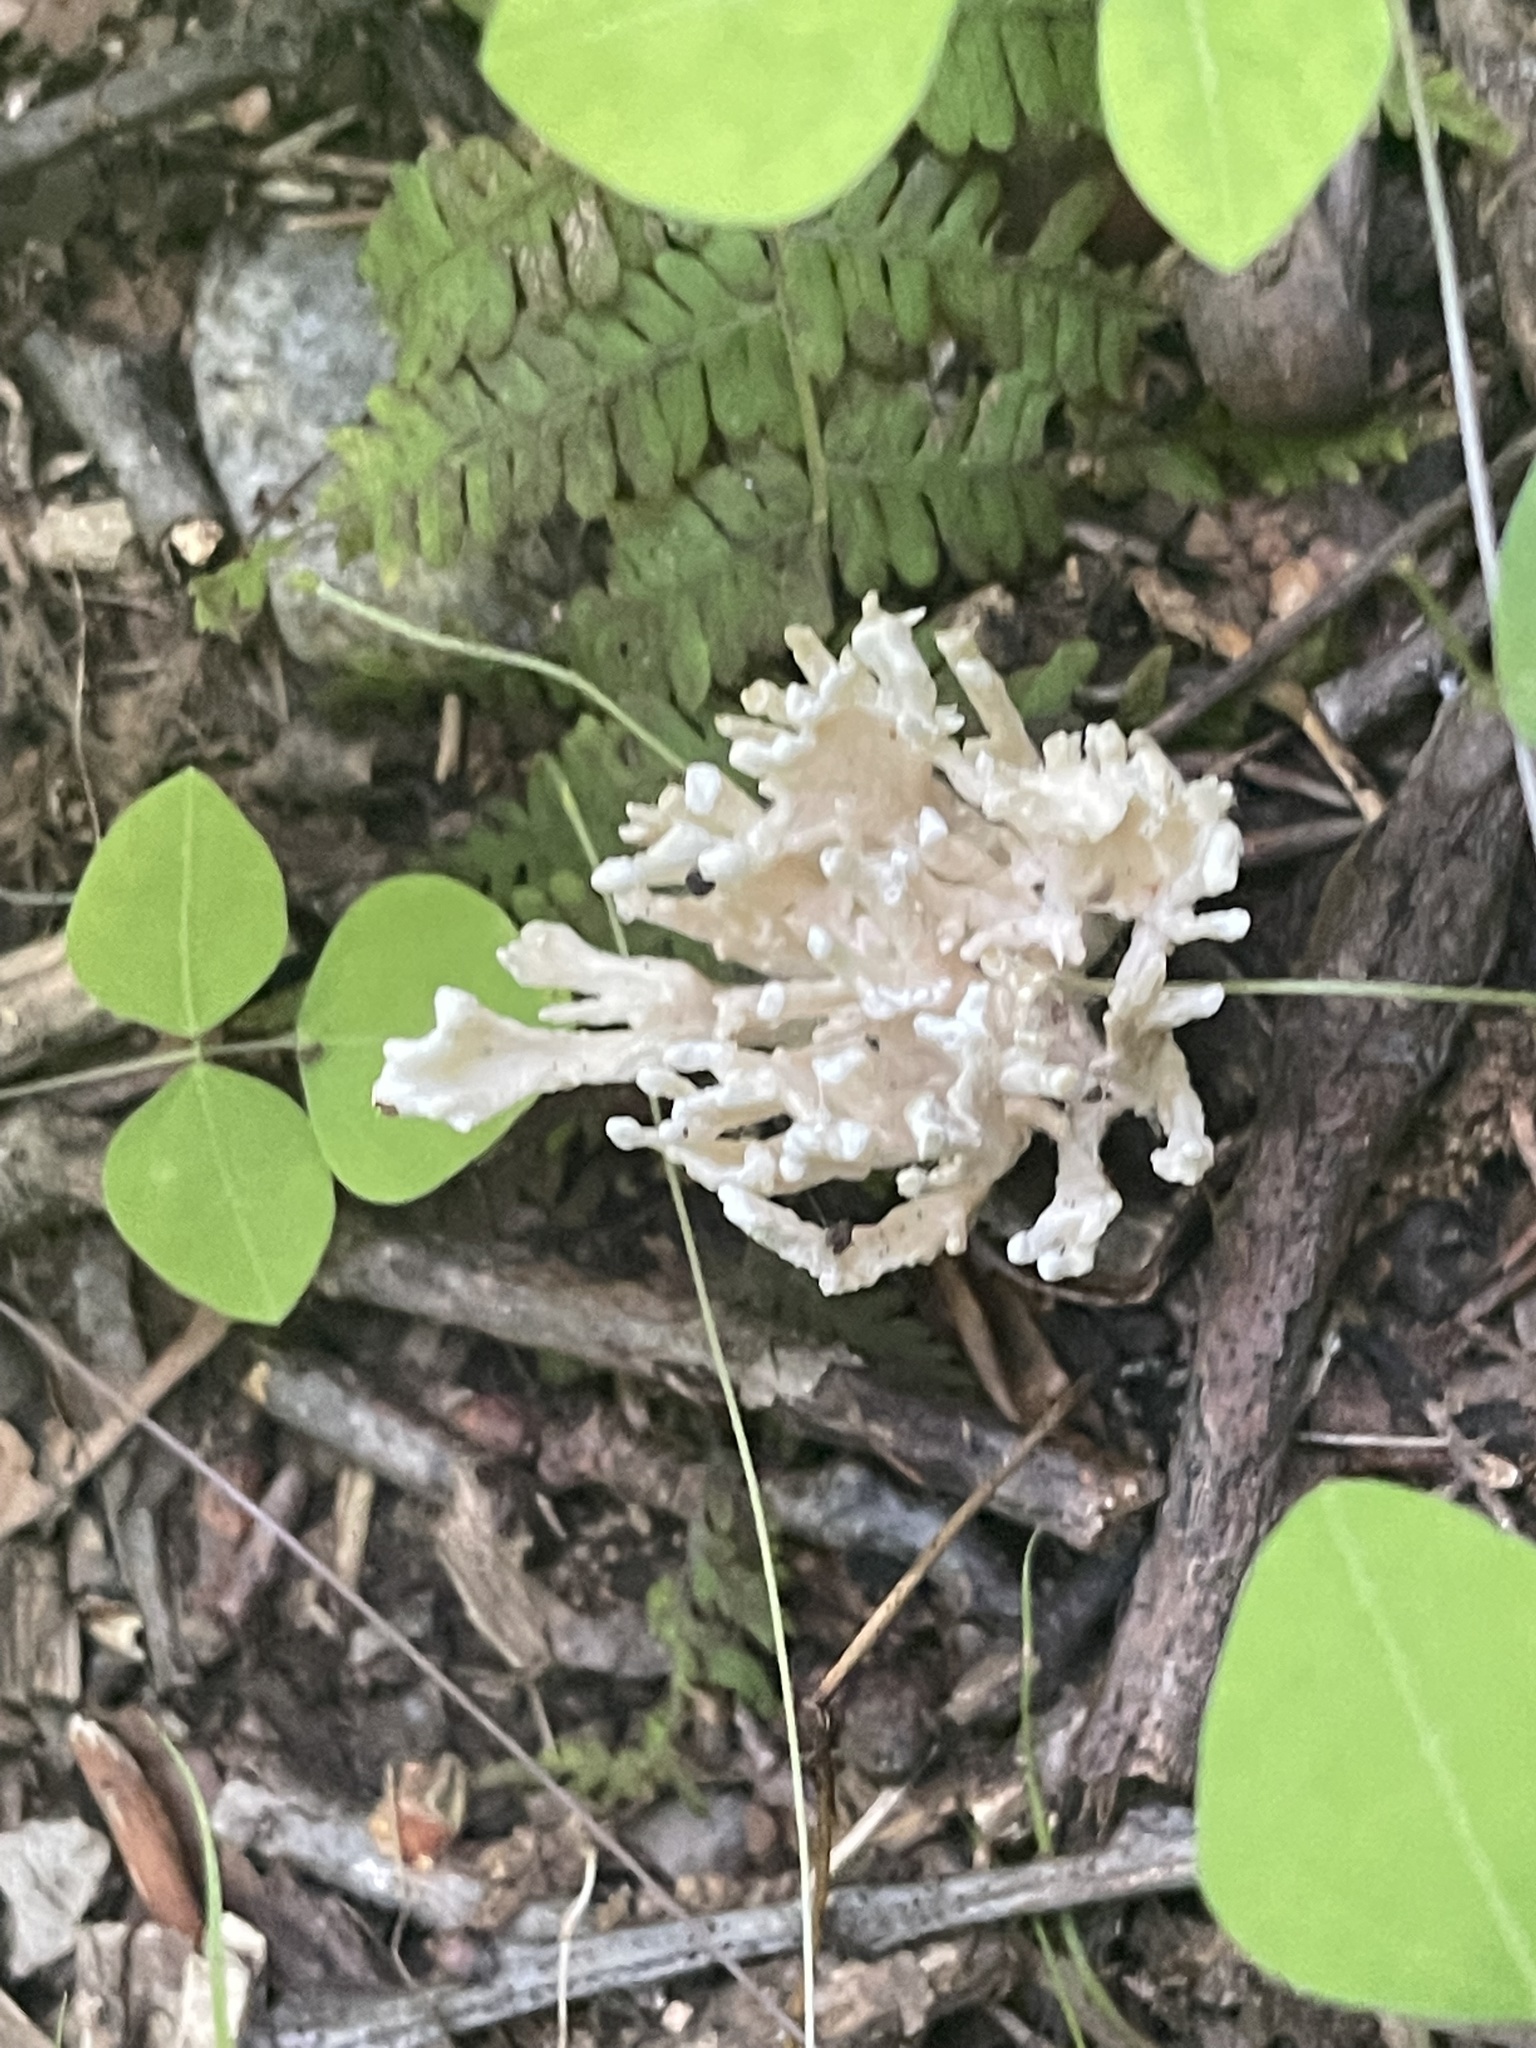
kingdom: Fungi
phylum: Basidiomycota
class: Agaricomycetes
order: Sebacinales
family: Sebacinaceae
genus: Sebacina
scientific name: Sebacina schweinitzii
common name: Jellied false coral fungus
